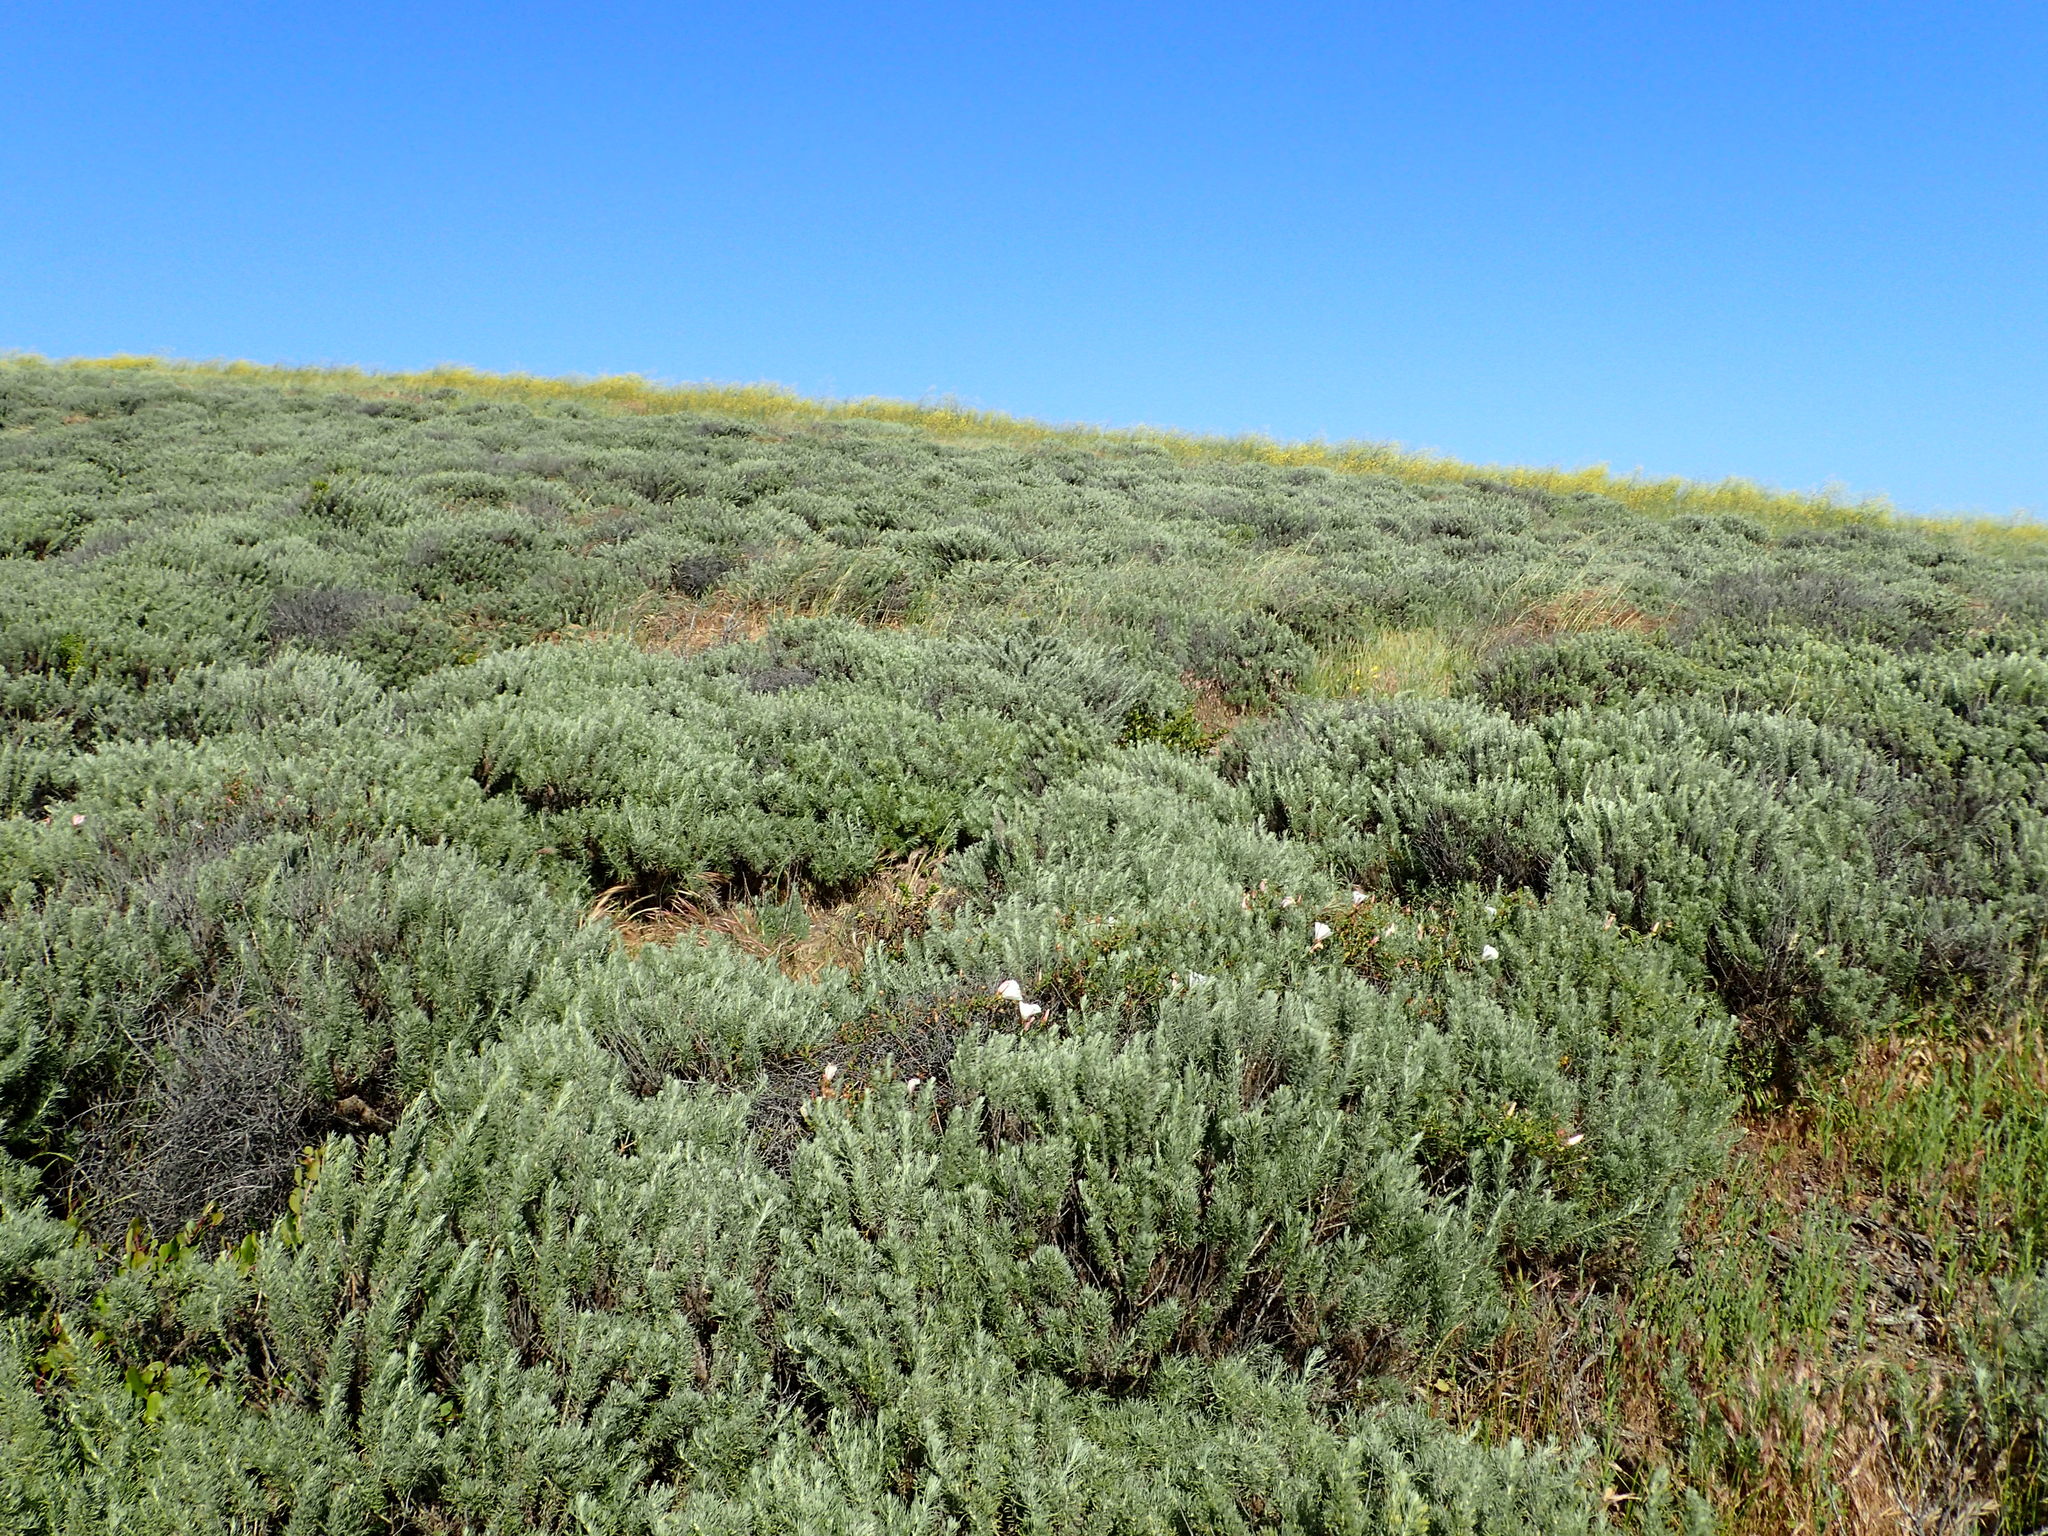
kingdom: Plantae
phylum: Tracheophyta
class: Magnoliopsida
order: Asterales
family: Asteraceae
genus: Artemisia
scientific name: Artemisia californica
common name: California sagebrush
